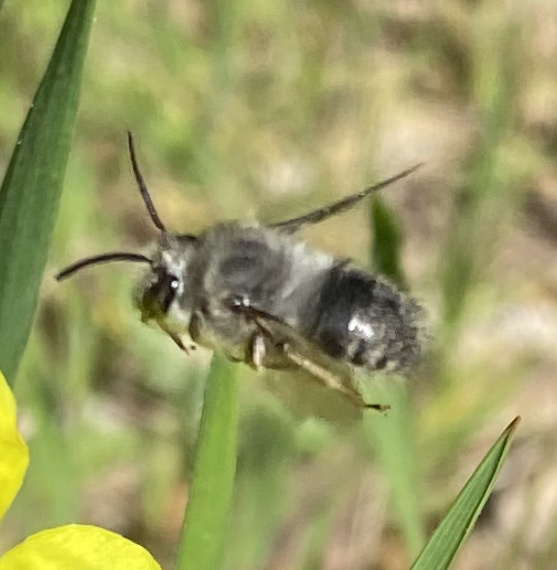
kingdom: Animalia
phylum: Arthropoda
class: Insecta
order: Hymenoptera
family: Apidae
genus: Habropoda
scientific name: Habropoda depressa
